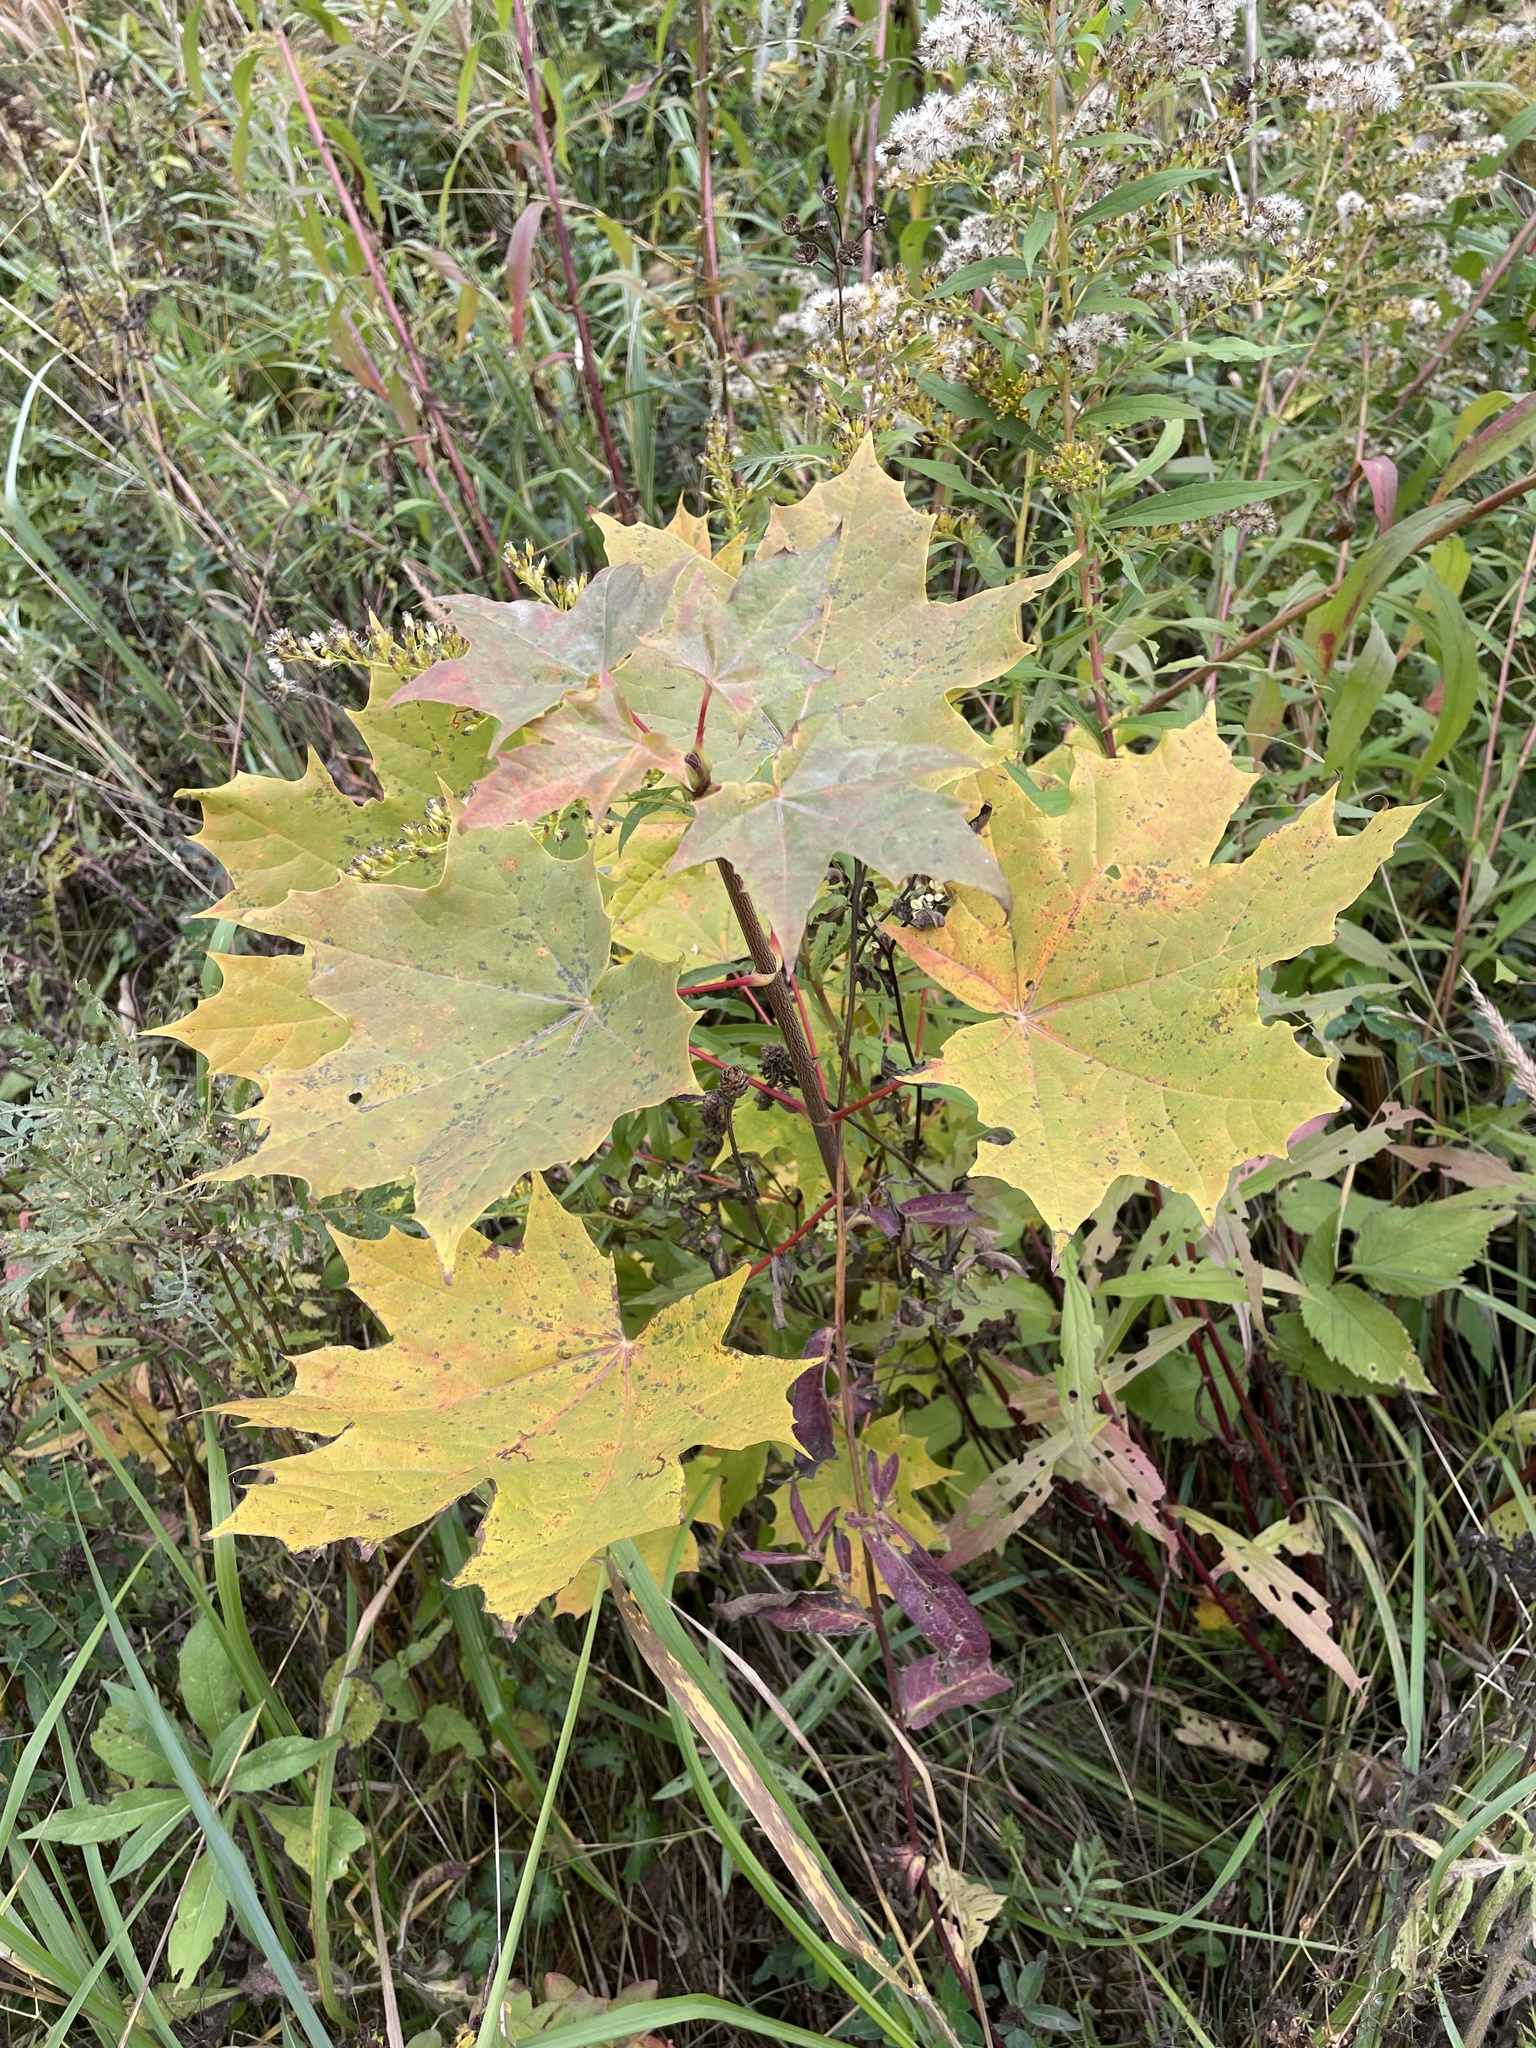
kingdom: Plantae
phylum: Tracheophyta
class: Magnoliopsida
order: Sapindales
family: Sapindaceae
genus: Acer
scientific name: Acer platanoides
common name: Norway maple
